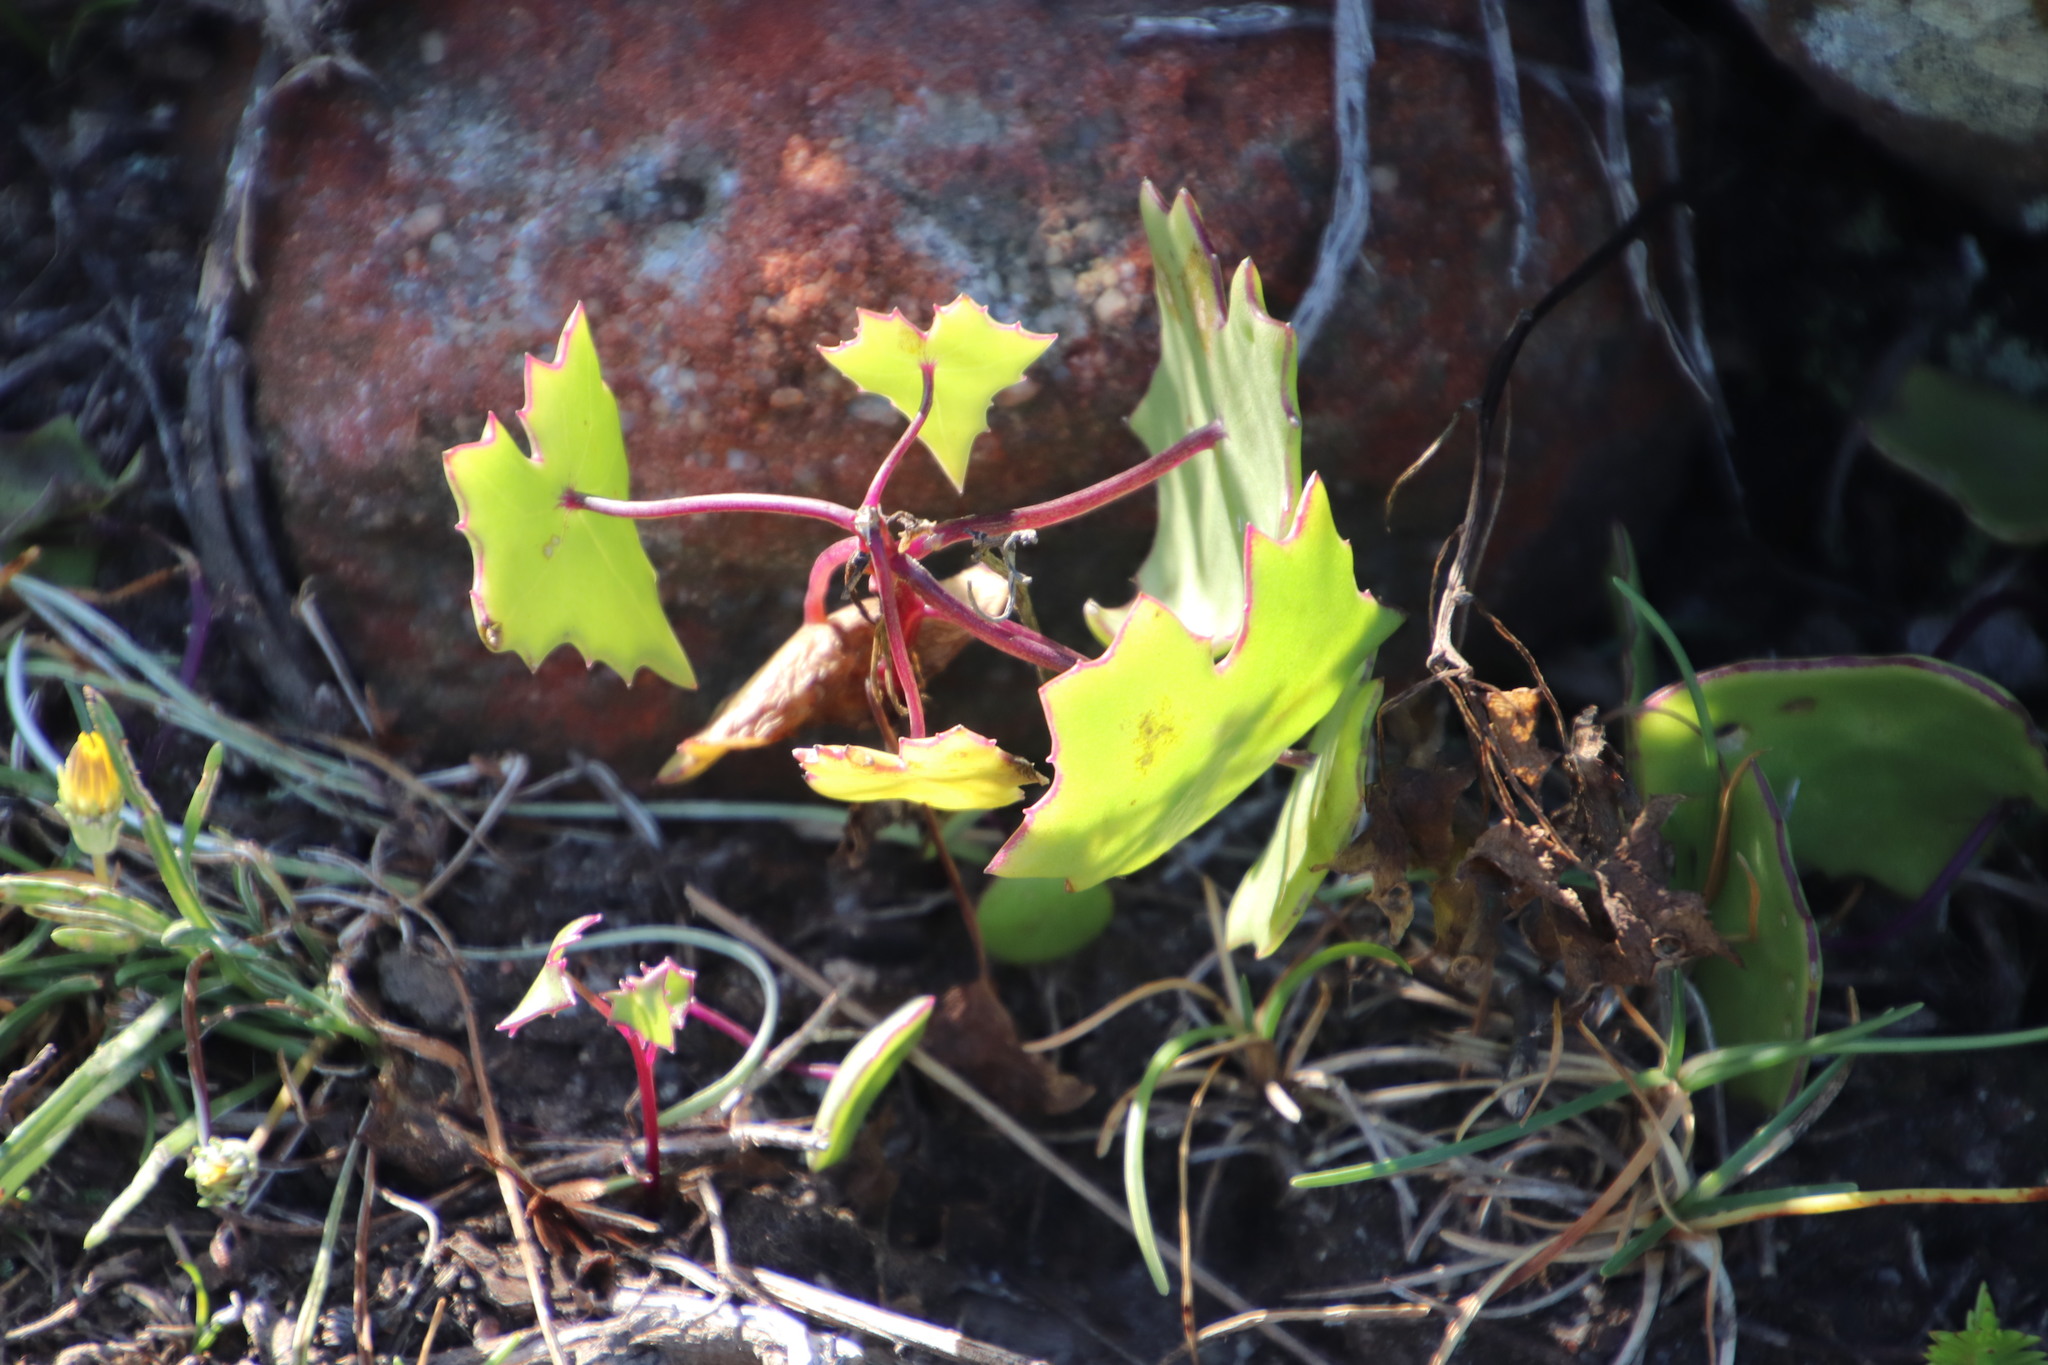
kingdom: Plantae
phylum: Tracheophyta
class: Magnoliopsida
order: Asterales
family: Asteraceae
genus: Senecio
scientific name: Senecio oxyriifolius
